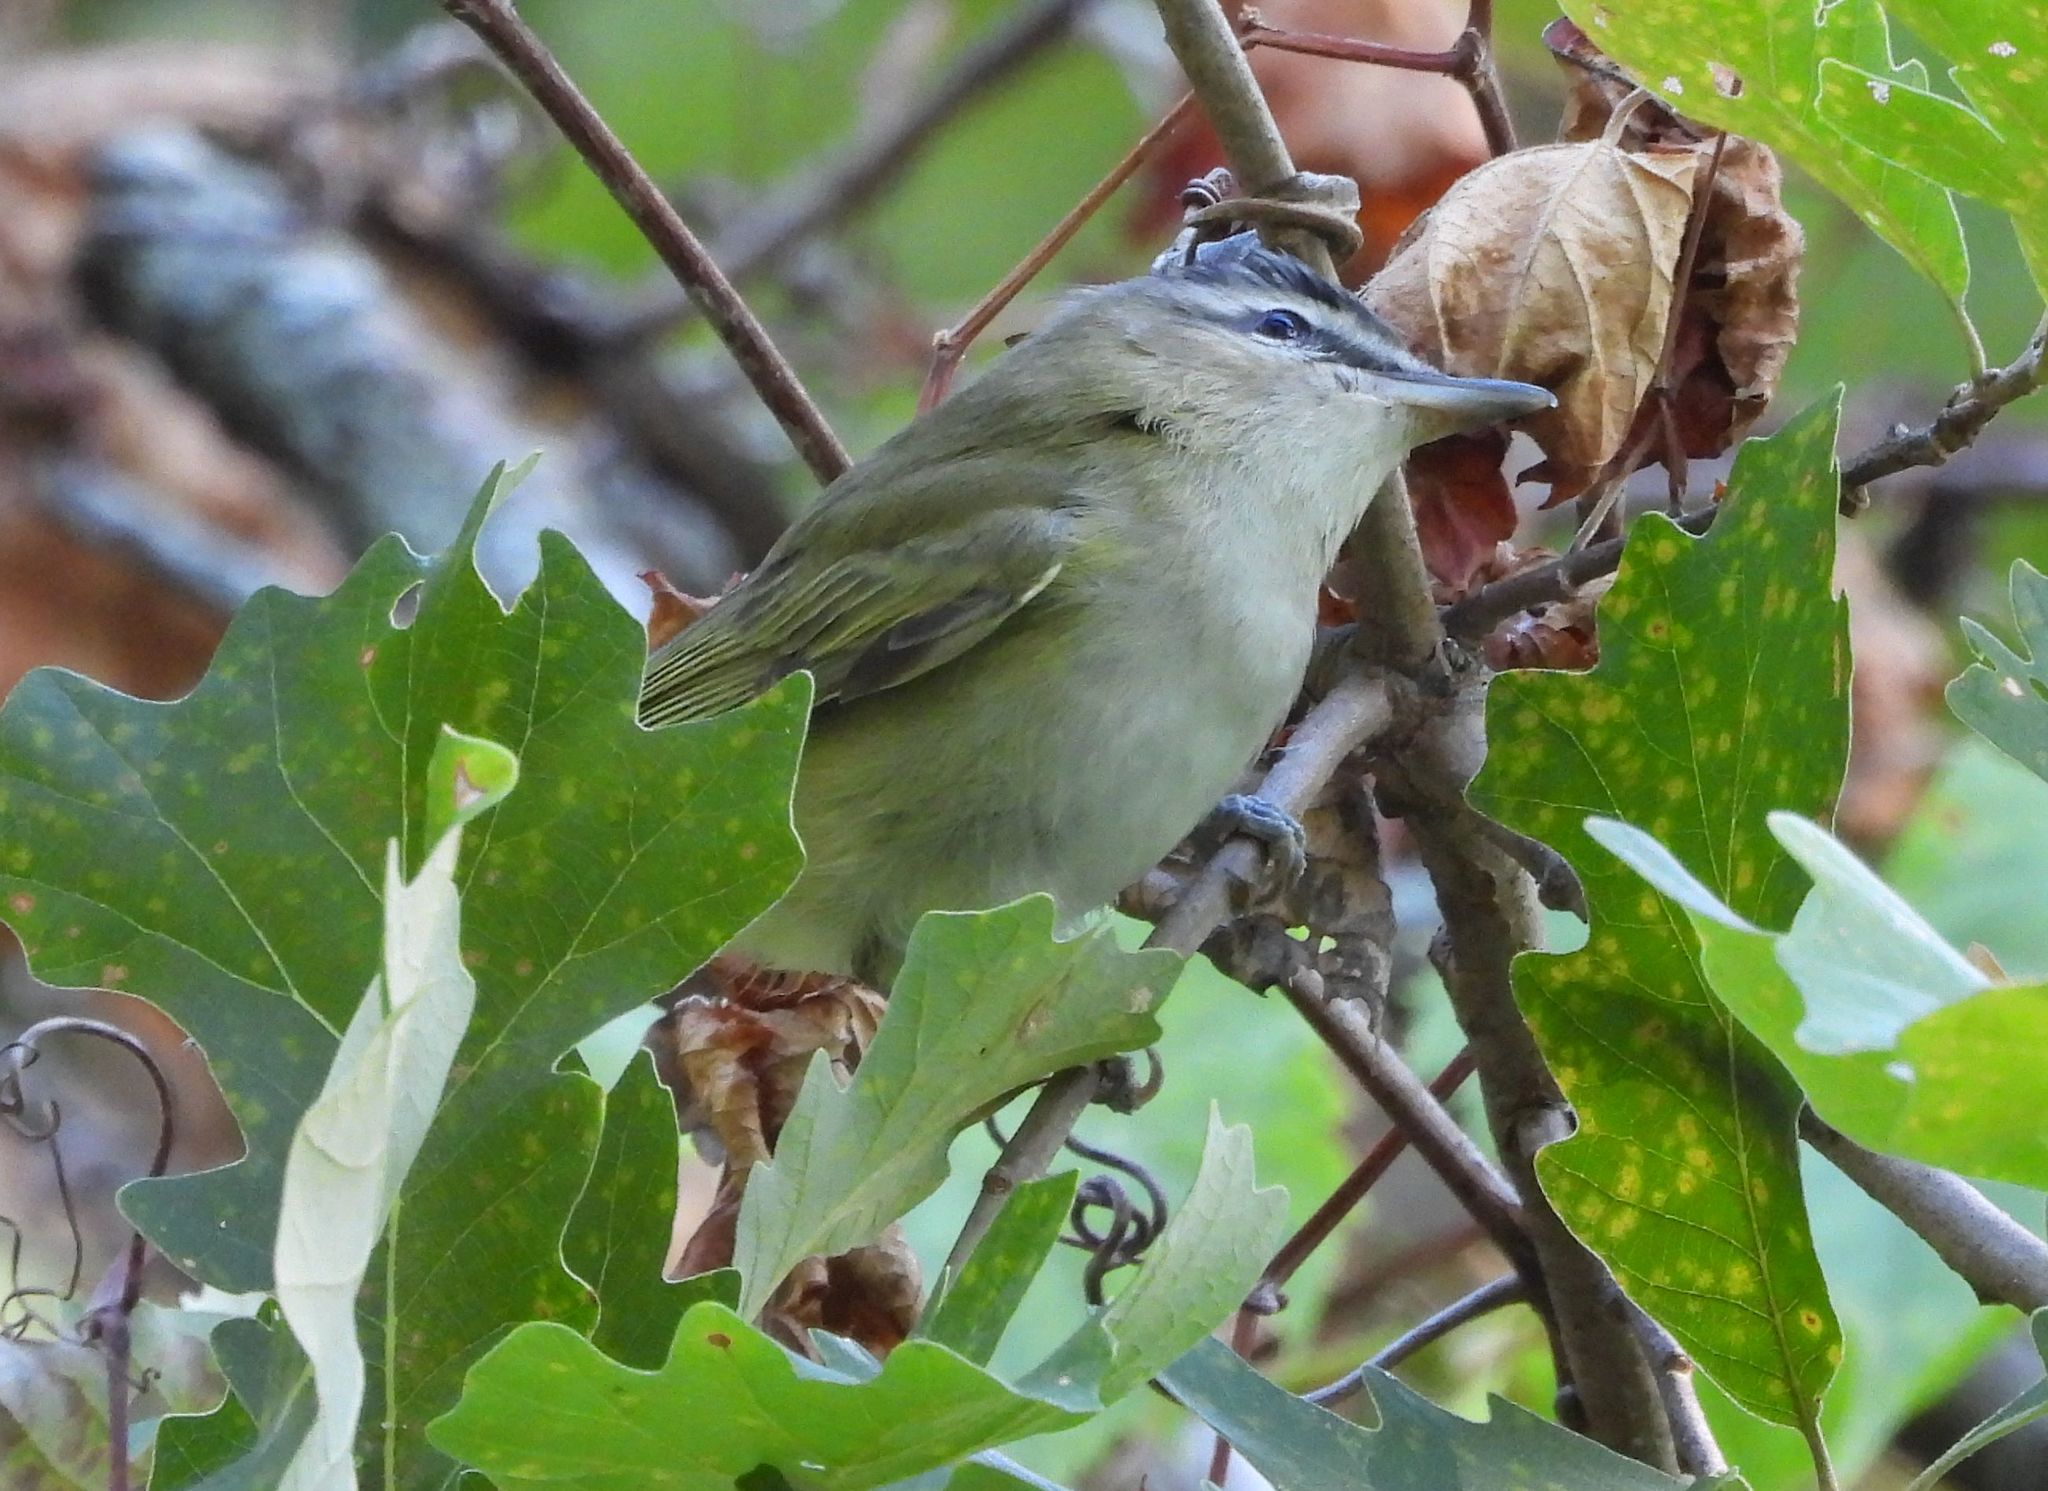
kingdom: Animalia
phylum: Chordata
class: Aves
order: Passeriformes
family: Vireonidae
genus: Vireo
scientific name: Vireo olivaceus
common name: Red-eyed vireo
